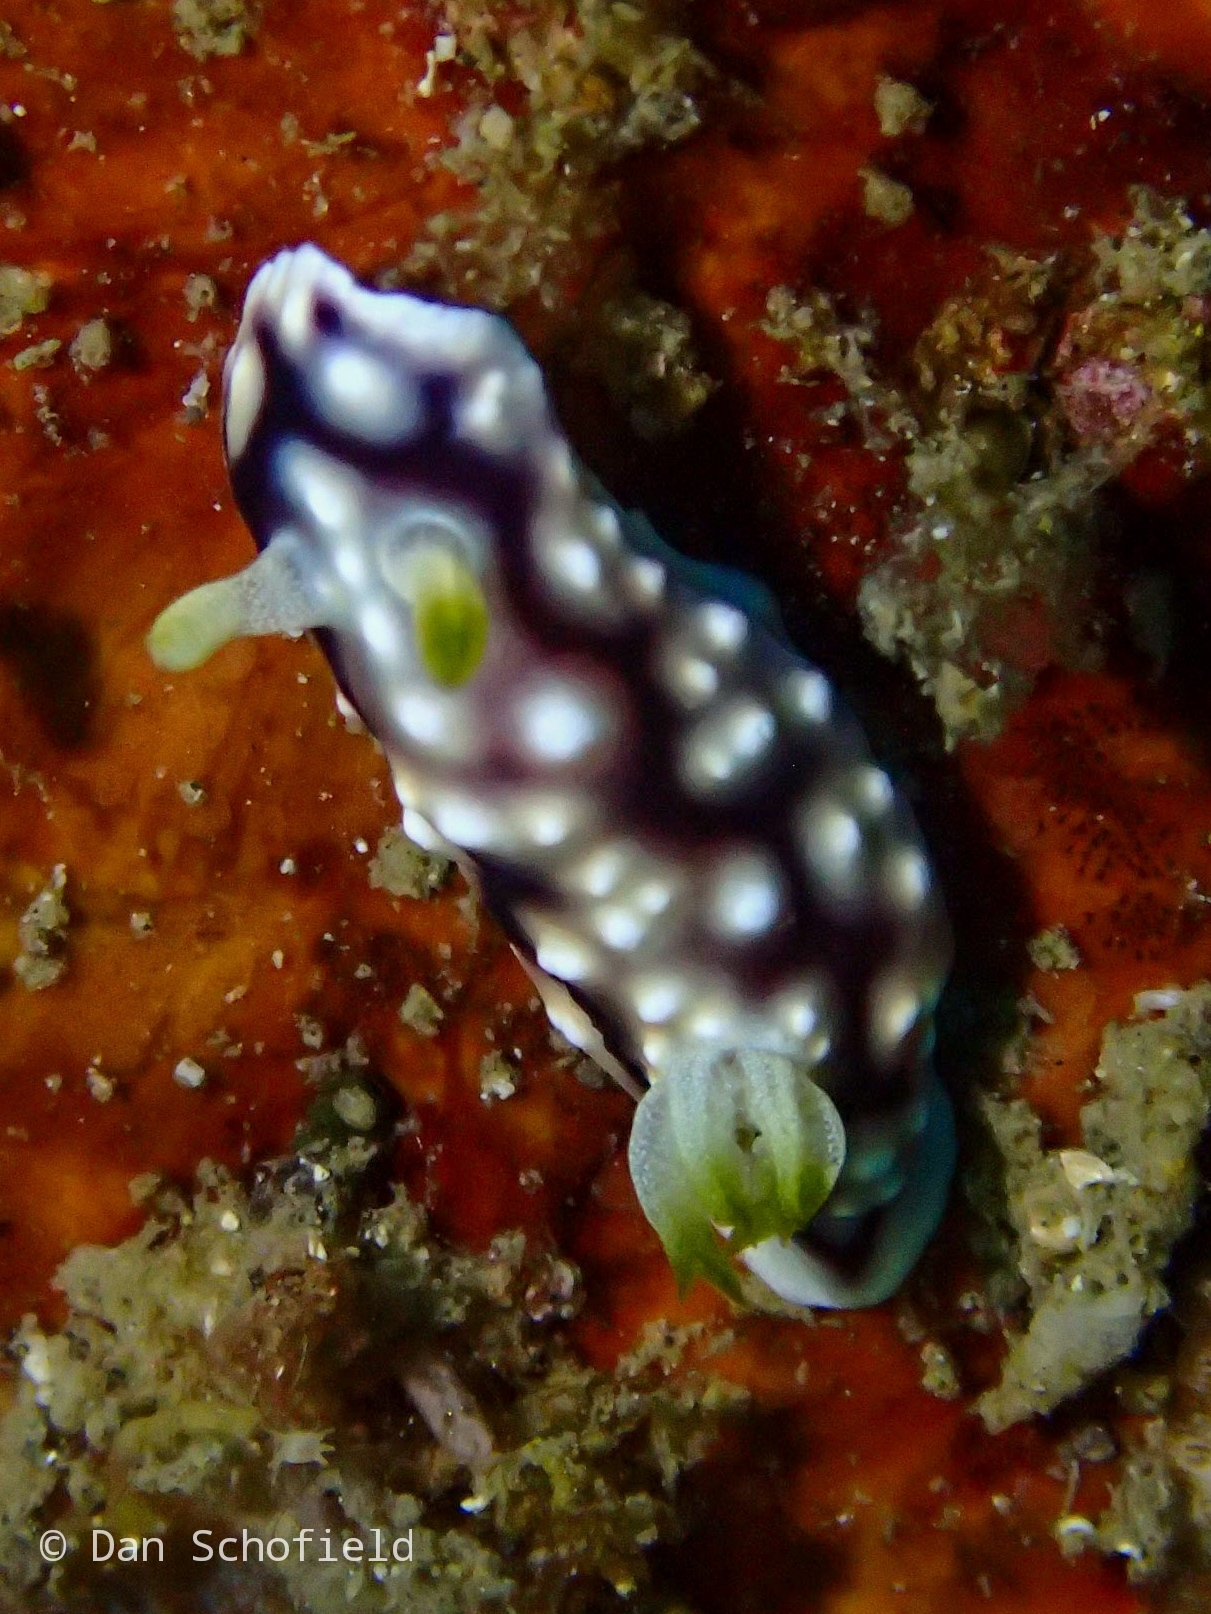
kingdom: Animalia
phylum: Mollusca
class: Gastropoda
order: Nudibranchia
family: Chromodorididae
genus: Goniobranchus
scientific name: Goniobranchus geometricus
